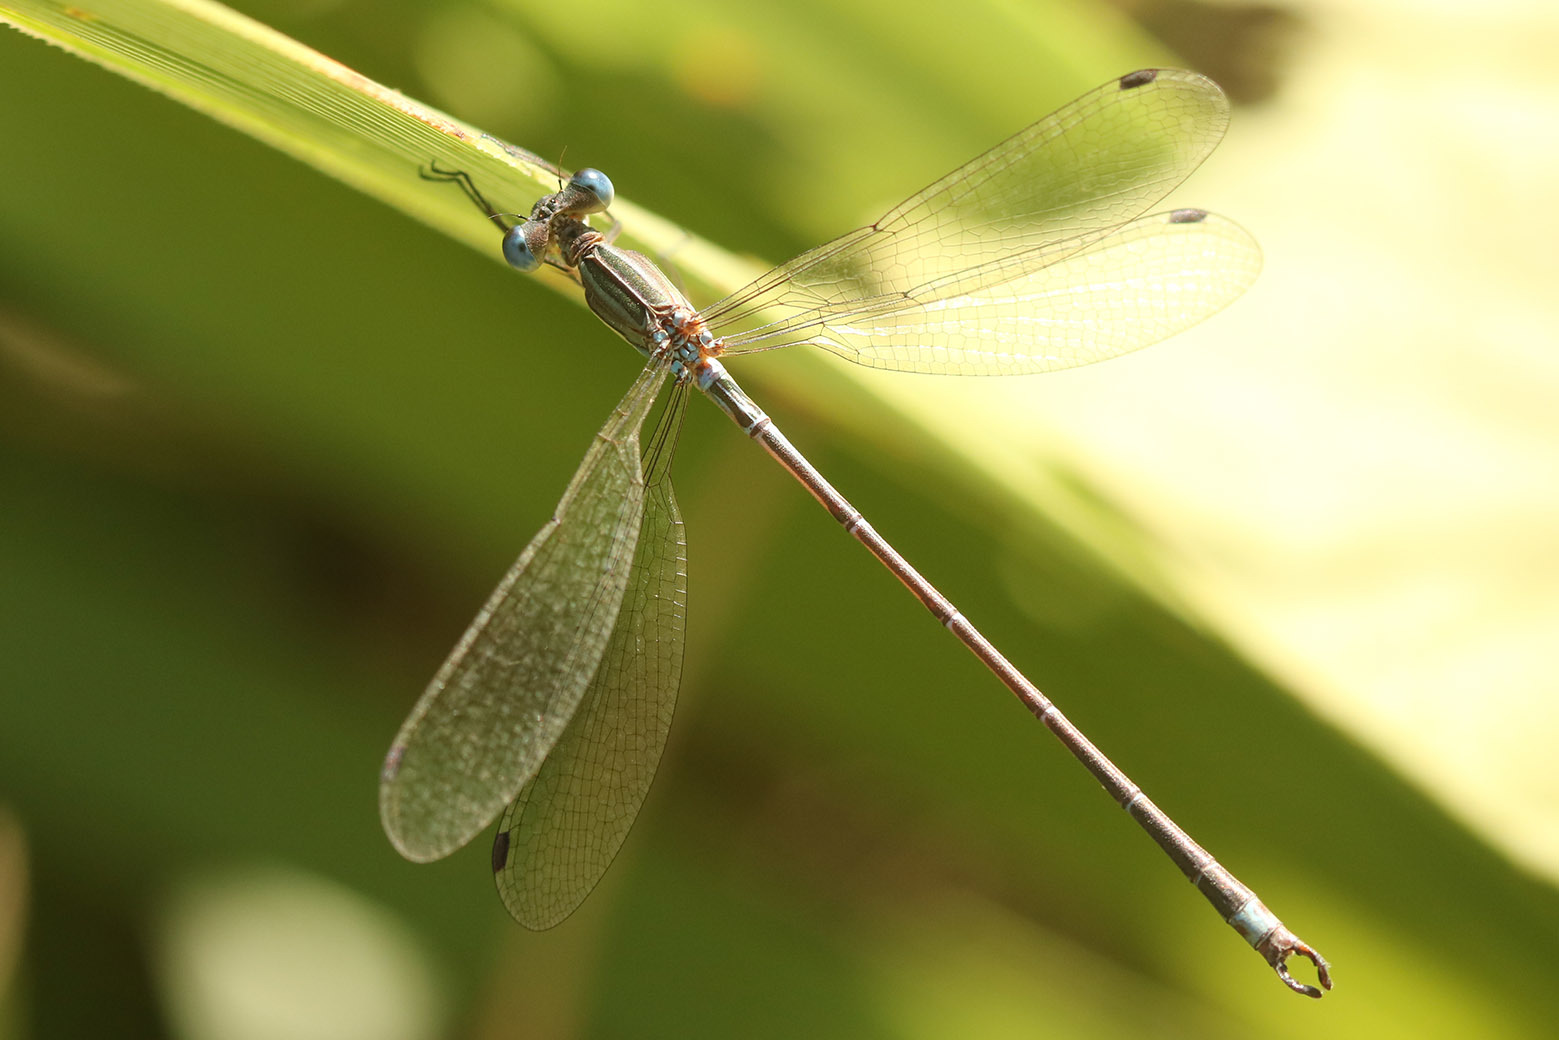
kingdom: Animalia
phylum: Arthropoda
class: Insecta
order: Odonata
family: Lestidae
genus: Lestes
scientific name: Lestes undulatus
